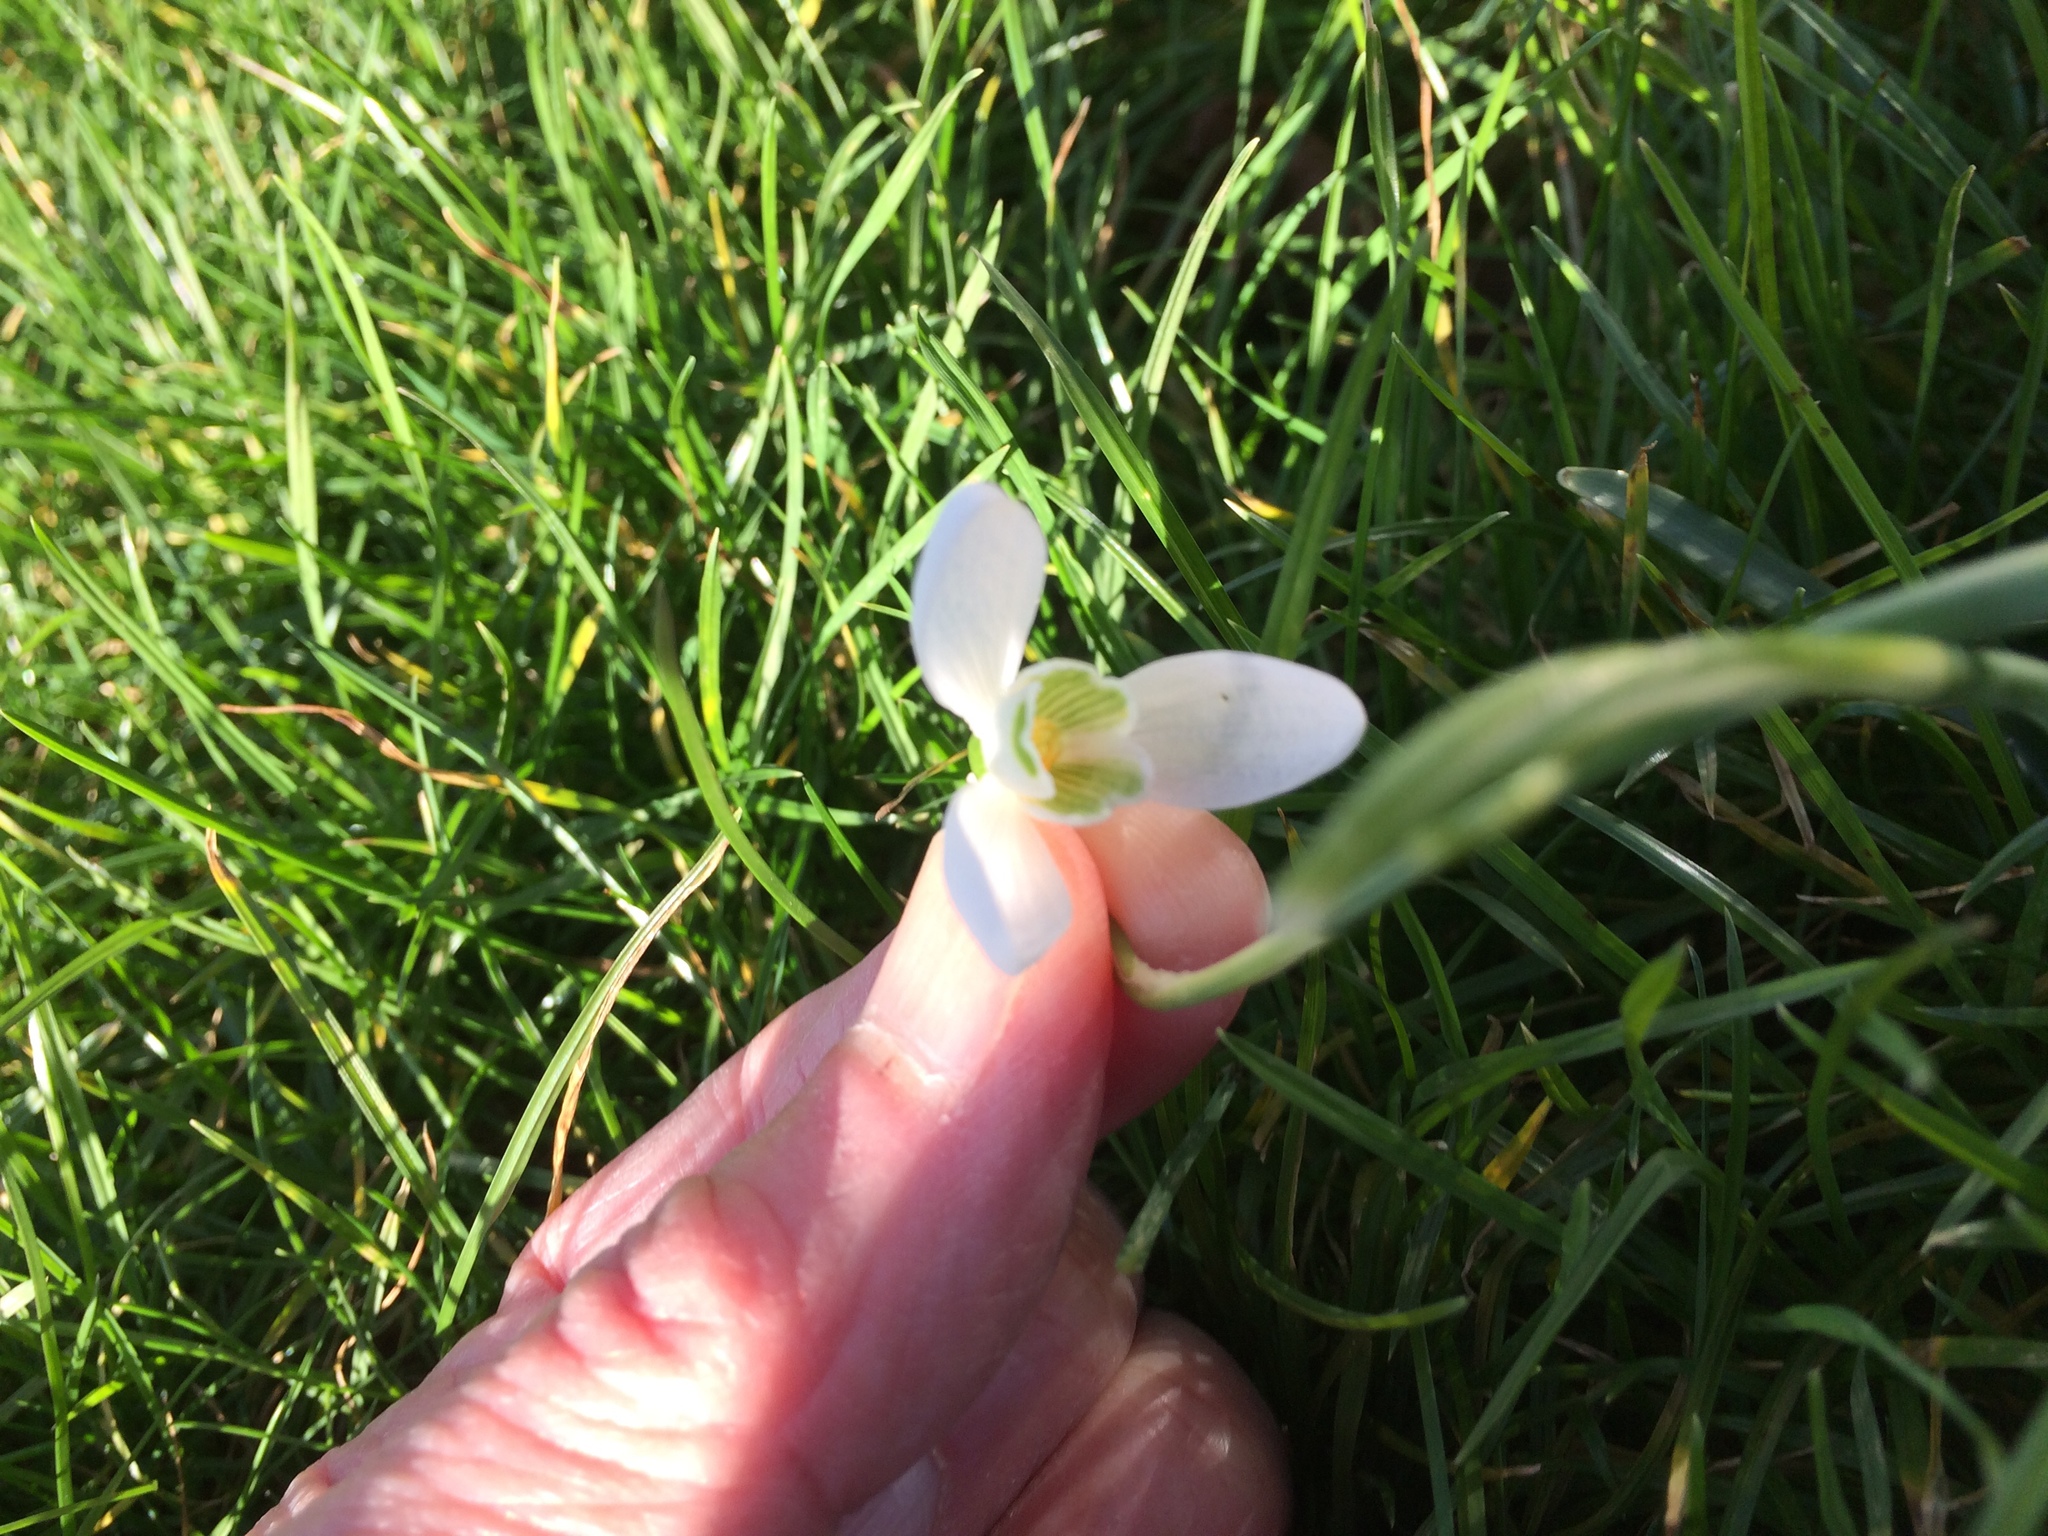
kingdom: Plantae
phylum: Tracheophyta
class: Liliopsida
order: Asparagales
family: Amaryllidaceae
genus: Galanthus
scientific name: Galanthus nivalis
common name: Snowdrop
